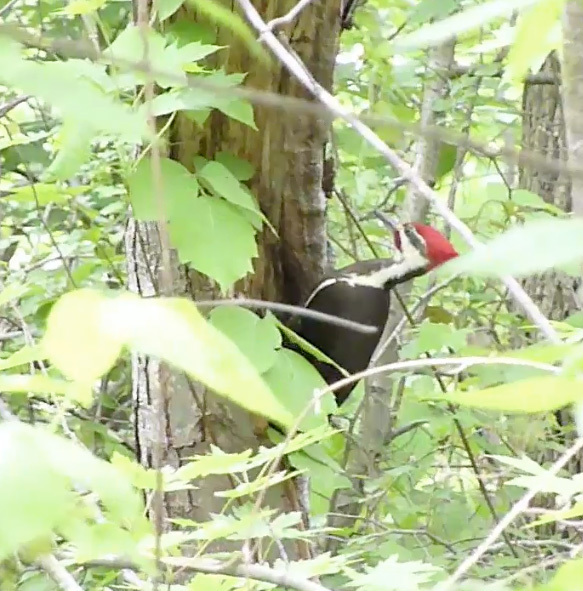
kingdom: Animalia
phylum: Chordata
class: Aves
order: Piciformes
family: Picidae
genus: Dryocopus
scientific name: Dryocopus pileatus
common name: Pileated woodpecker
